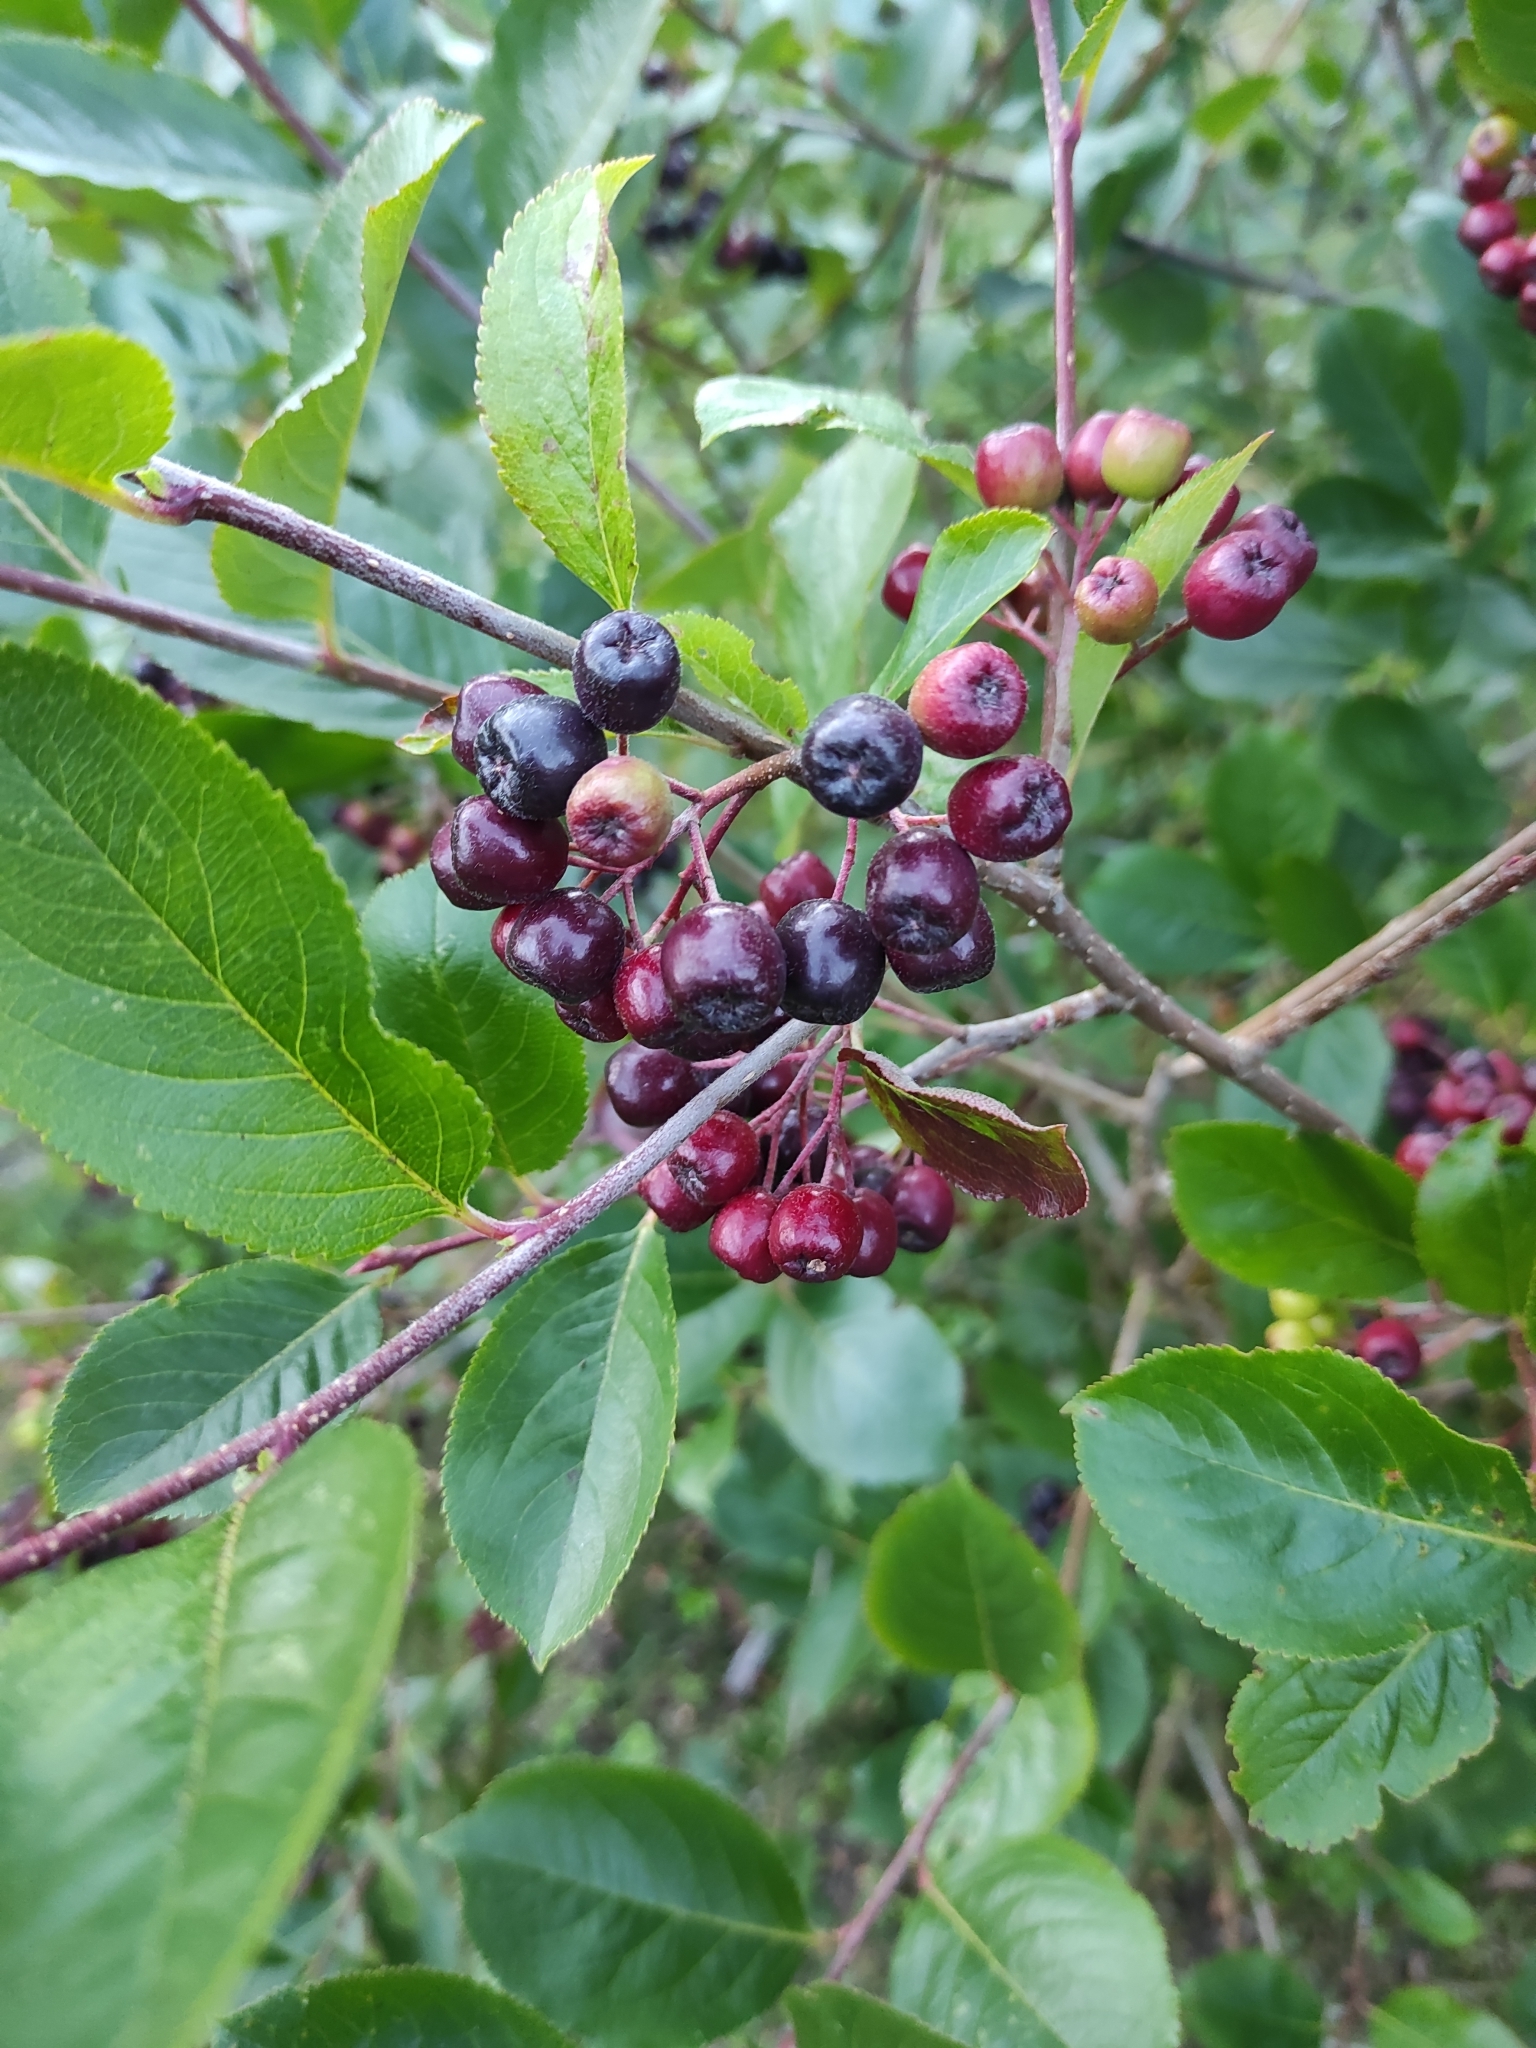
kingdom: Plantae
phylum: Tracheophyta
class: Magnoliopsida
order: Rosales
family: Rosaceae
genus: Aronia
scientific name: Aronia melanocarpa
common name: Black chokeberry
